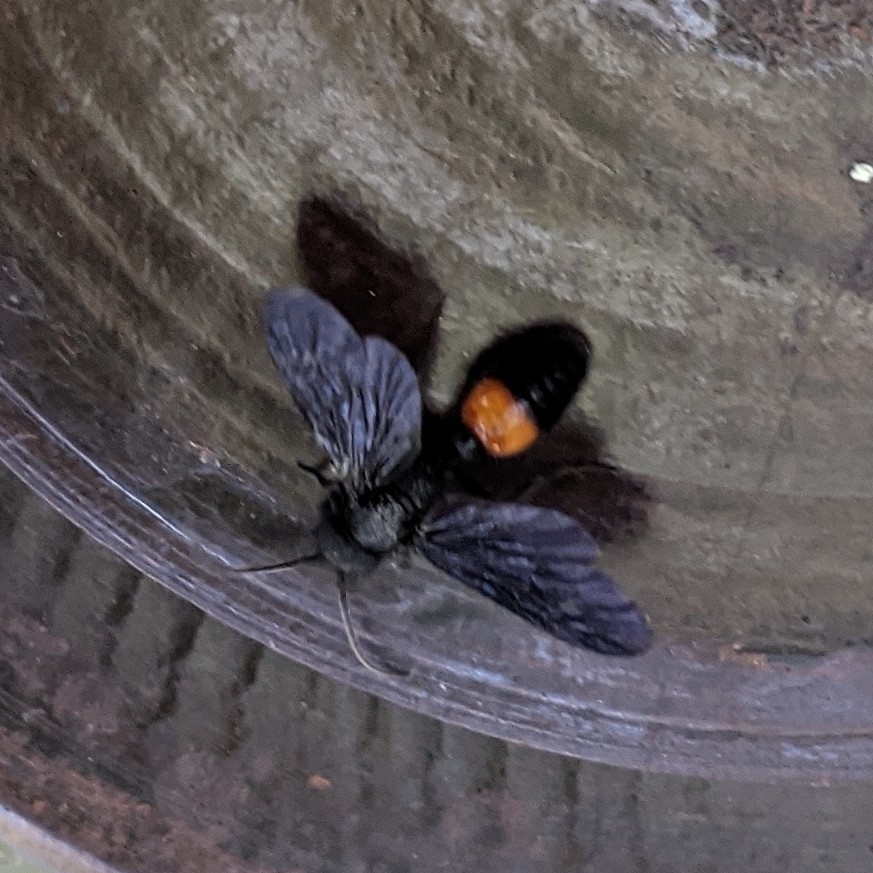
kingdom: Animalia
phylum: Arthropoda
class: Insecta
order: Hymenoptera
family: Mutillidae
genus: Sphaeropthalma
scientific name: Sphaeropthalma
